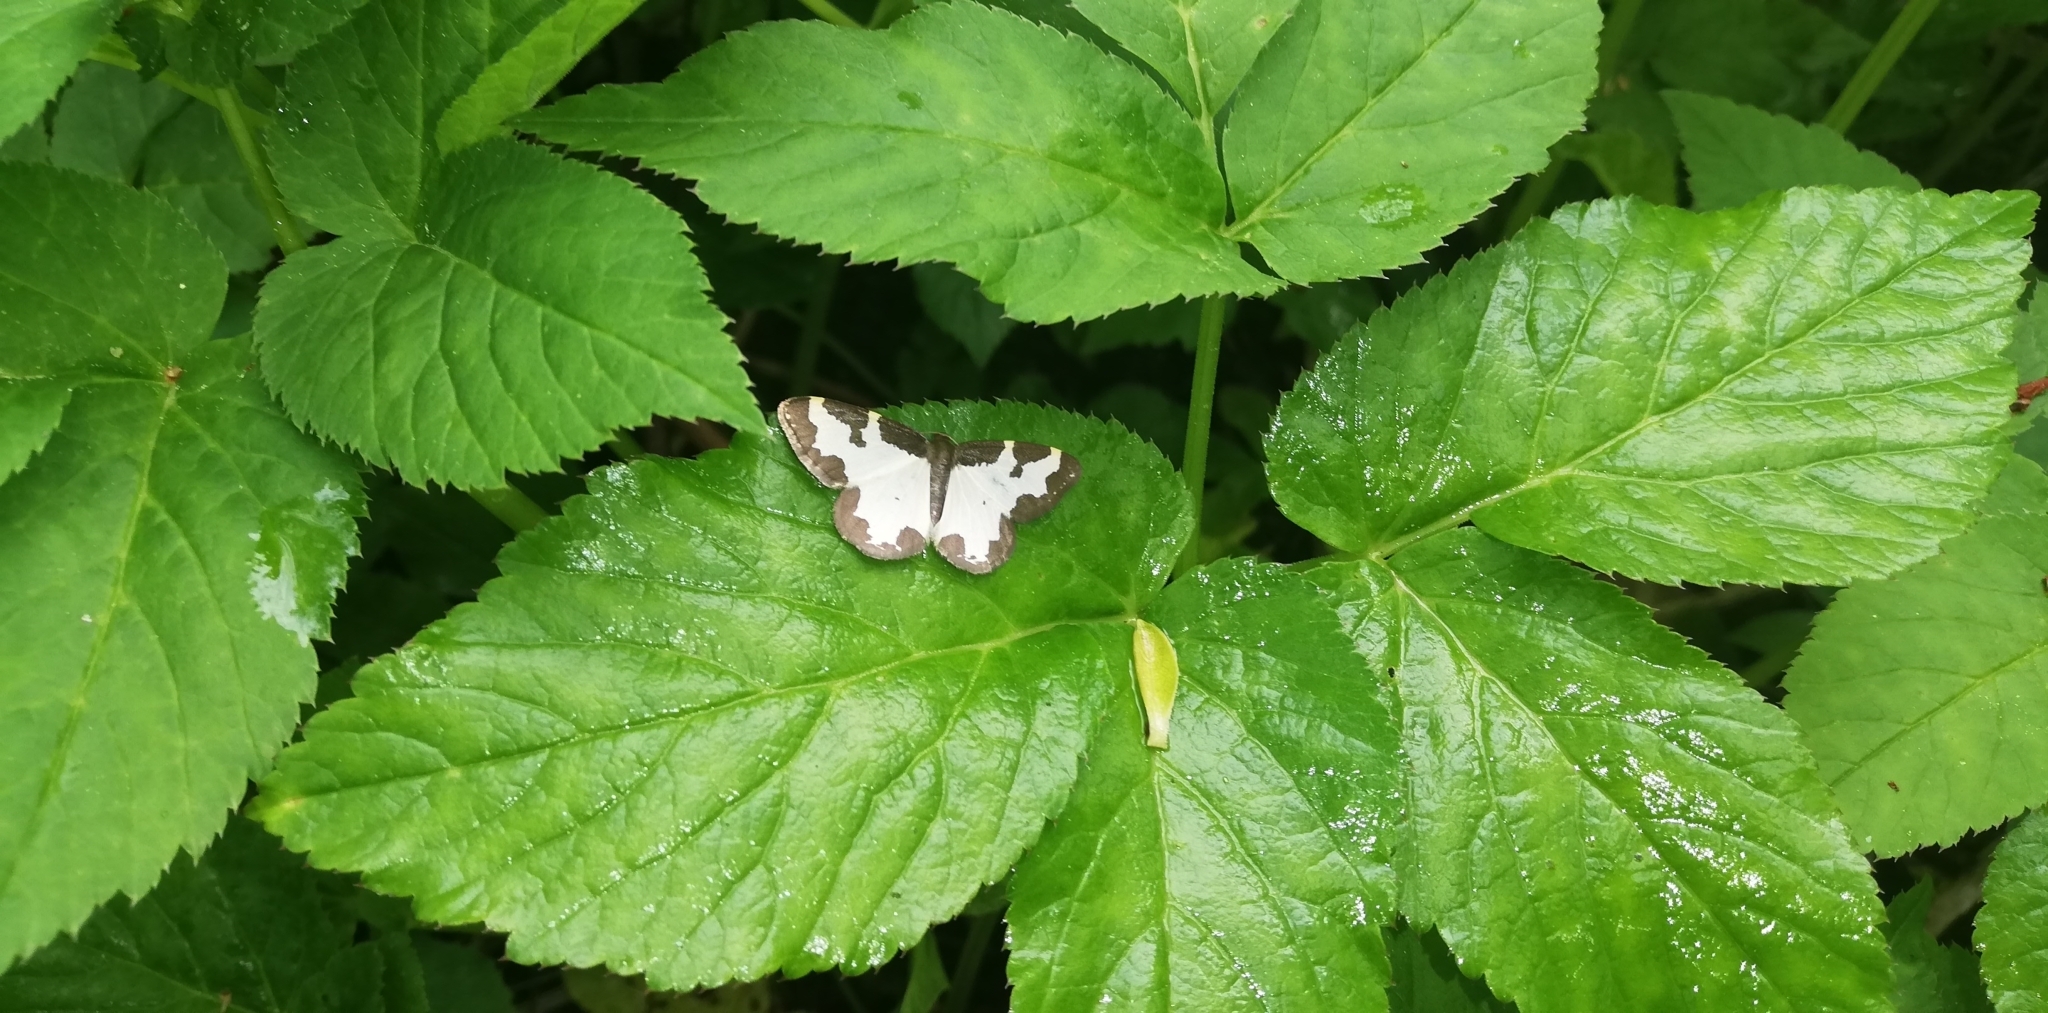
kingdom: Animalia
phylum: Arthropoda
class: Insecta
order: Lepidoptera
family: Geometridae
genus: Lomaspilis
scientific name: Lomaspilis marginata
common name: Clouded border
